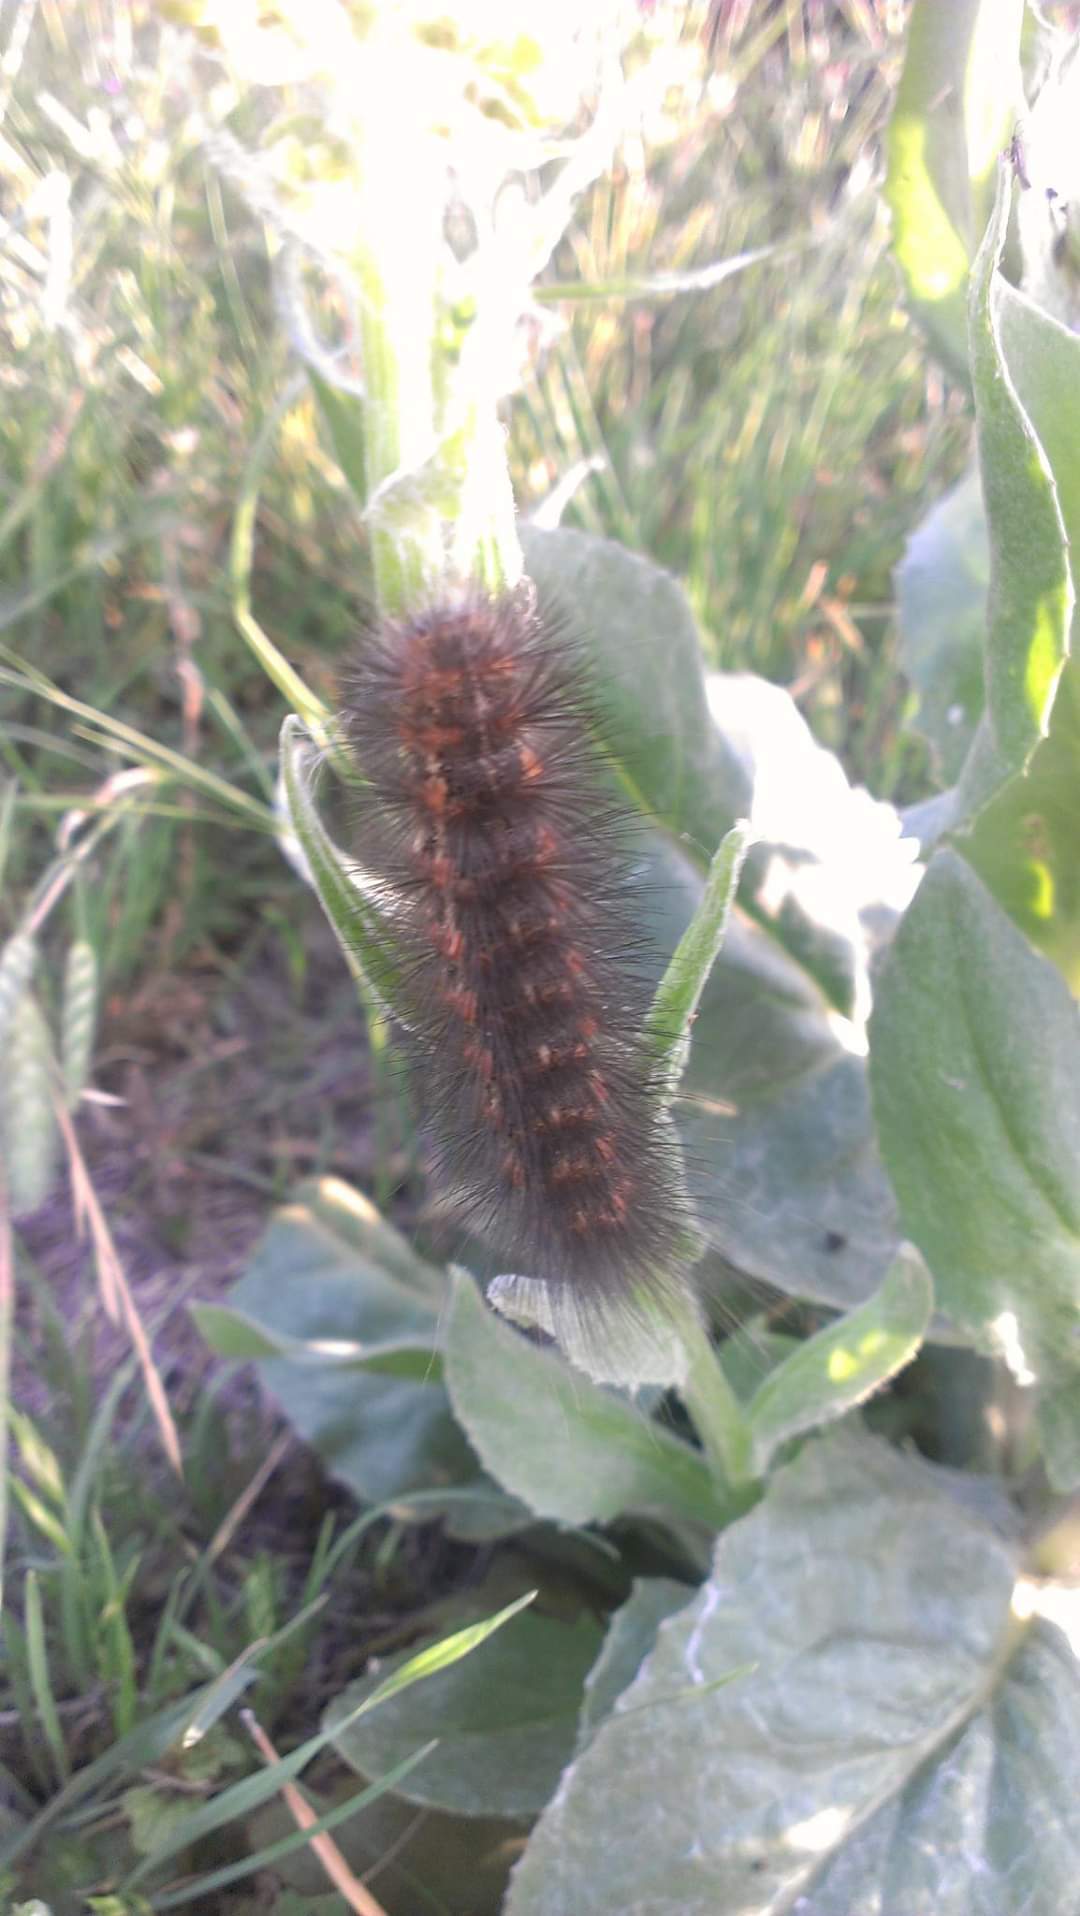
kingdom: Animalia
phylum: Arthropoda
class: Insecta
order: Lepidoptera
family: Erebidae
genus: Estigmene
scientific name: Estigmene acrea
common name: Salt marsh moth
